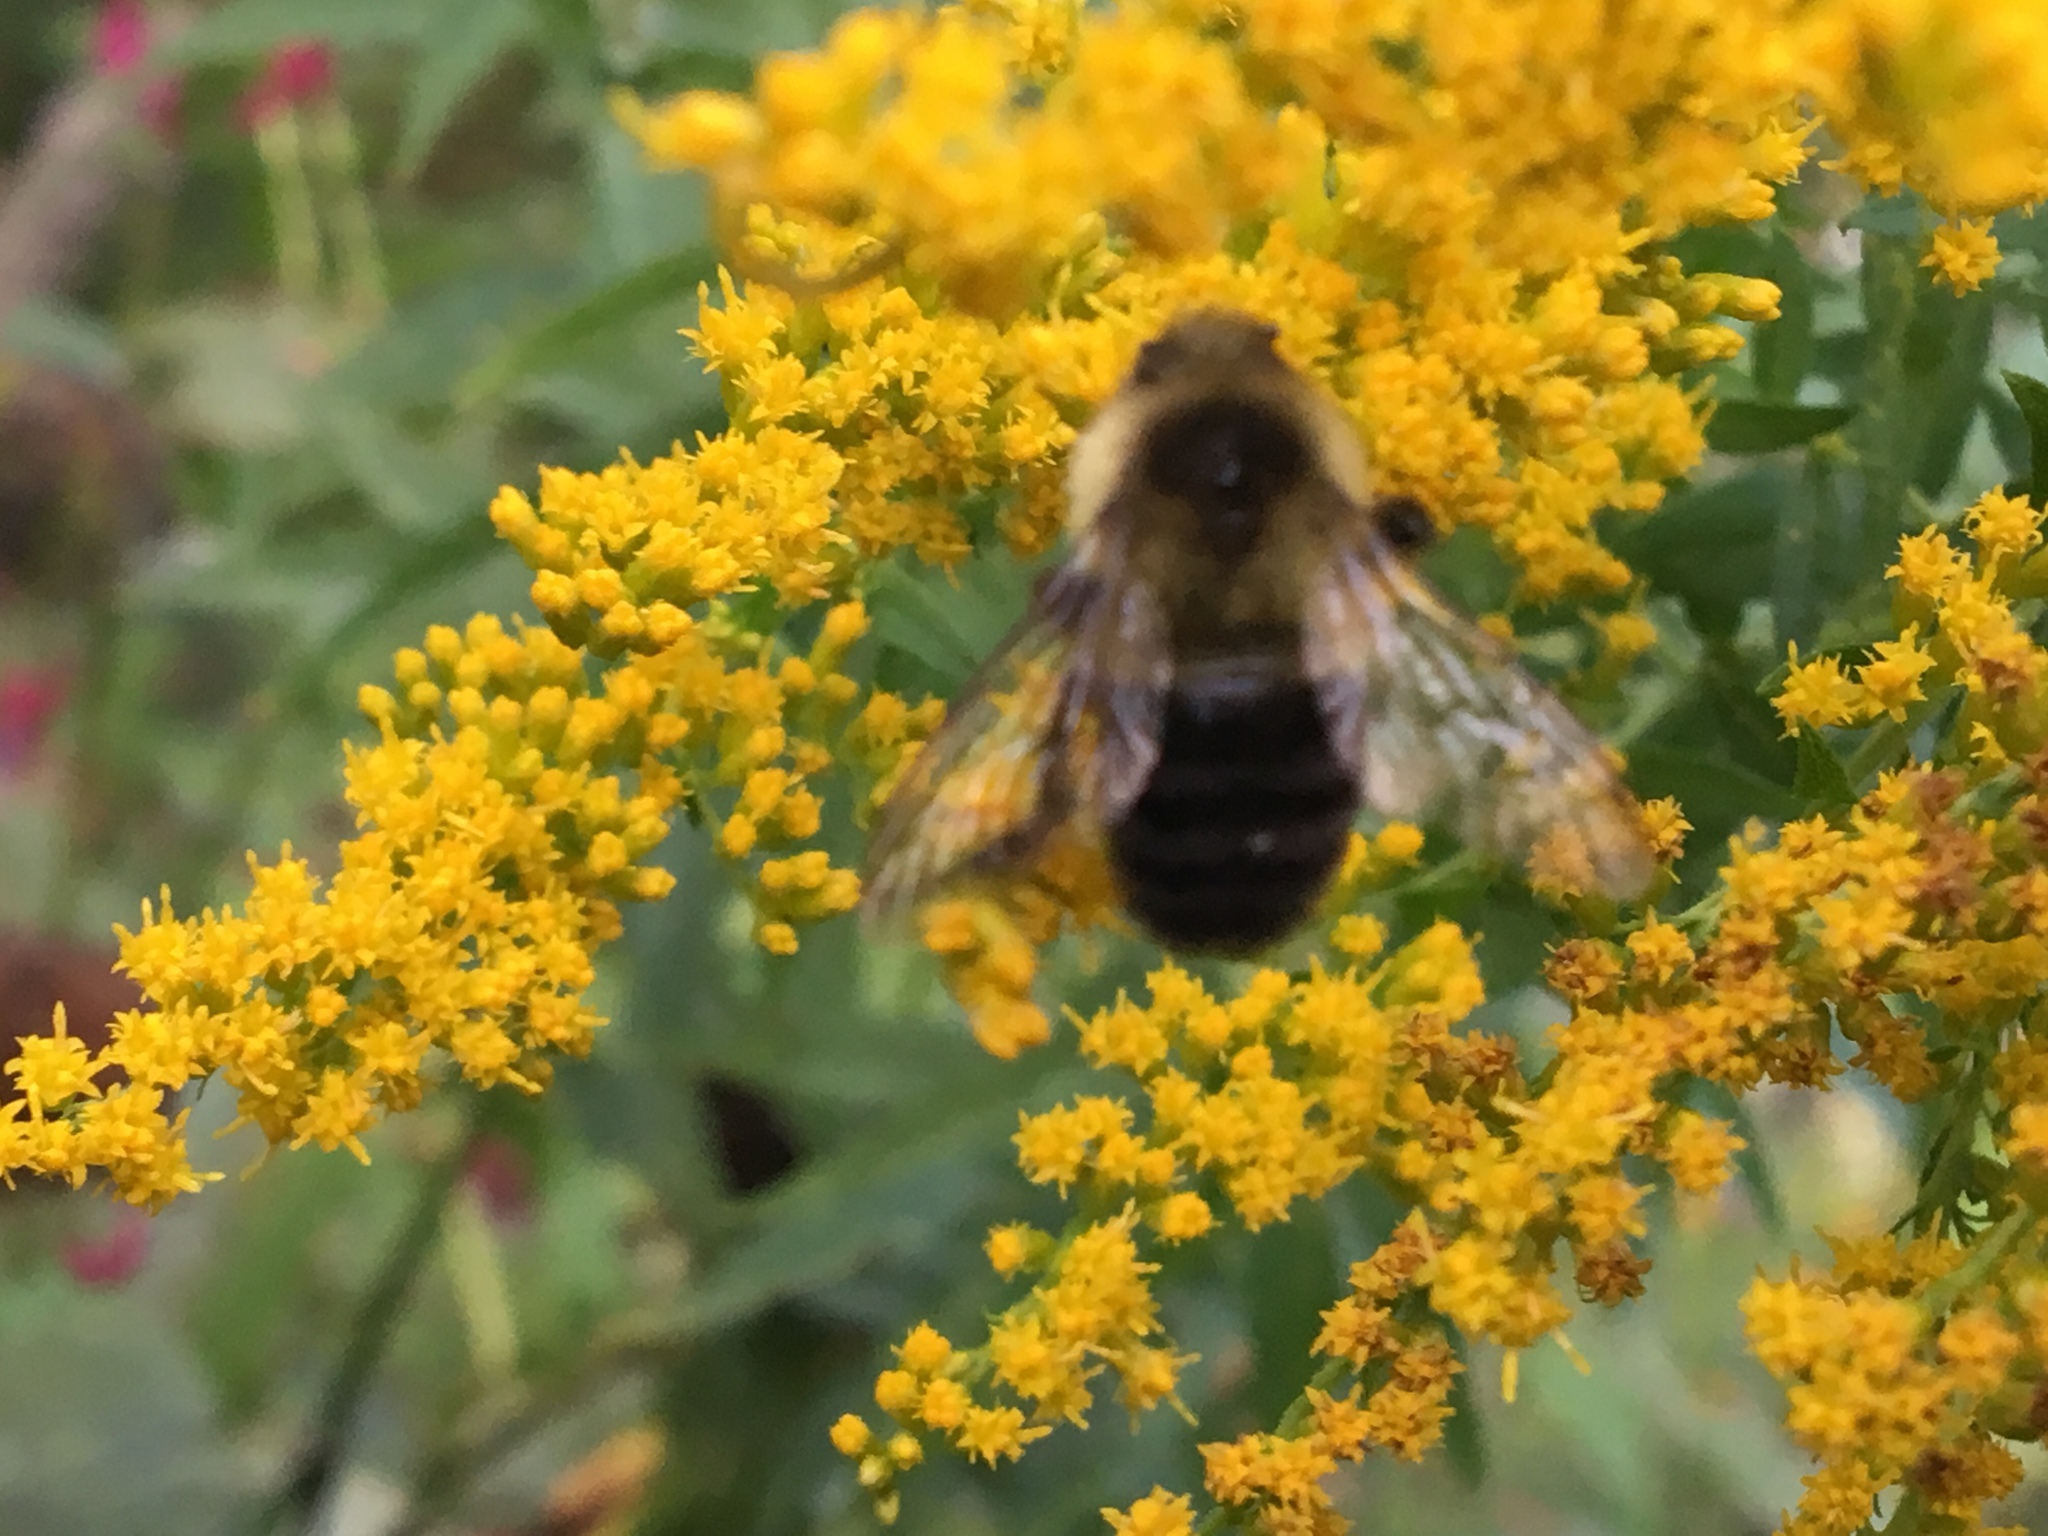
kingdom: Animalia
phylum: Arthropoda
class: Insecta
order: Hymenoptera
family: Apidae
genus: Bombus
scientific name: Bombus impatiens
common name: Common eastern bumble bee
